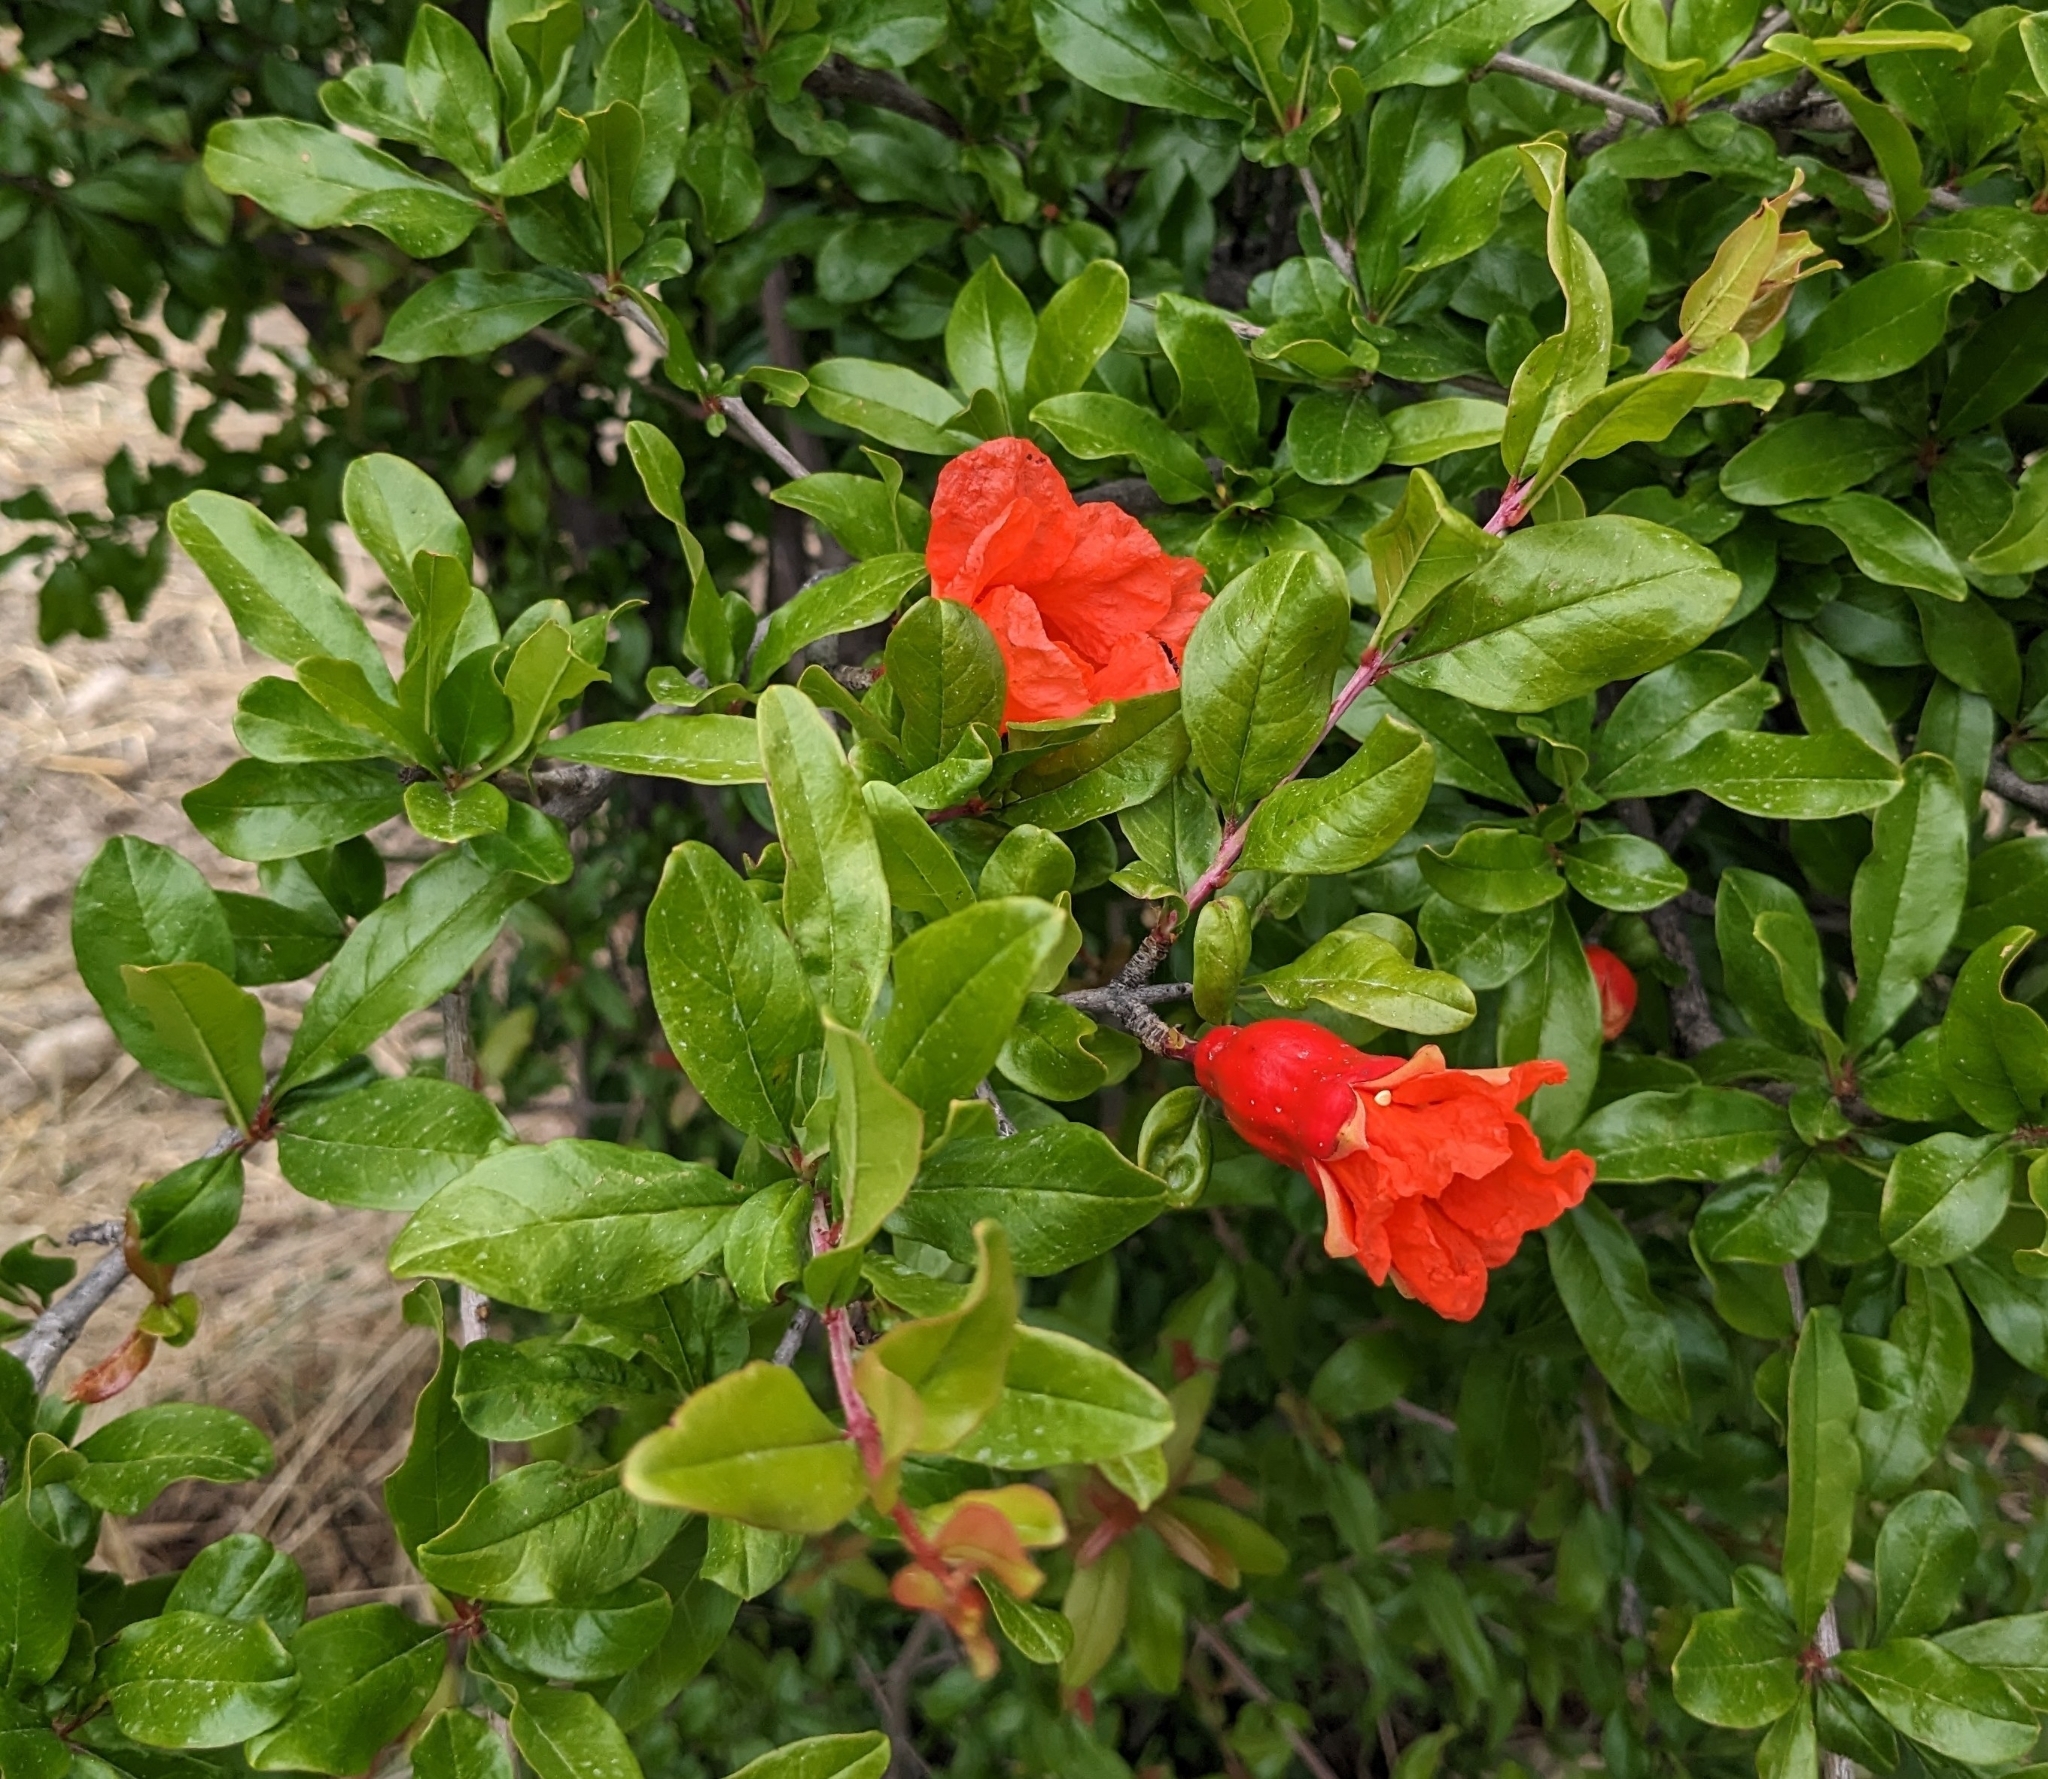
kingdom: Plantae
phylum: Tracheophyta
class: Magnoliopsida
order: Myrtales
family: Lythraceae
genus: Punica
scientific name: Punica granatum
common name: Pomegranate
